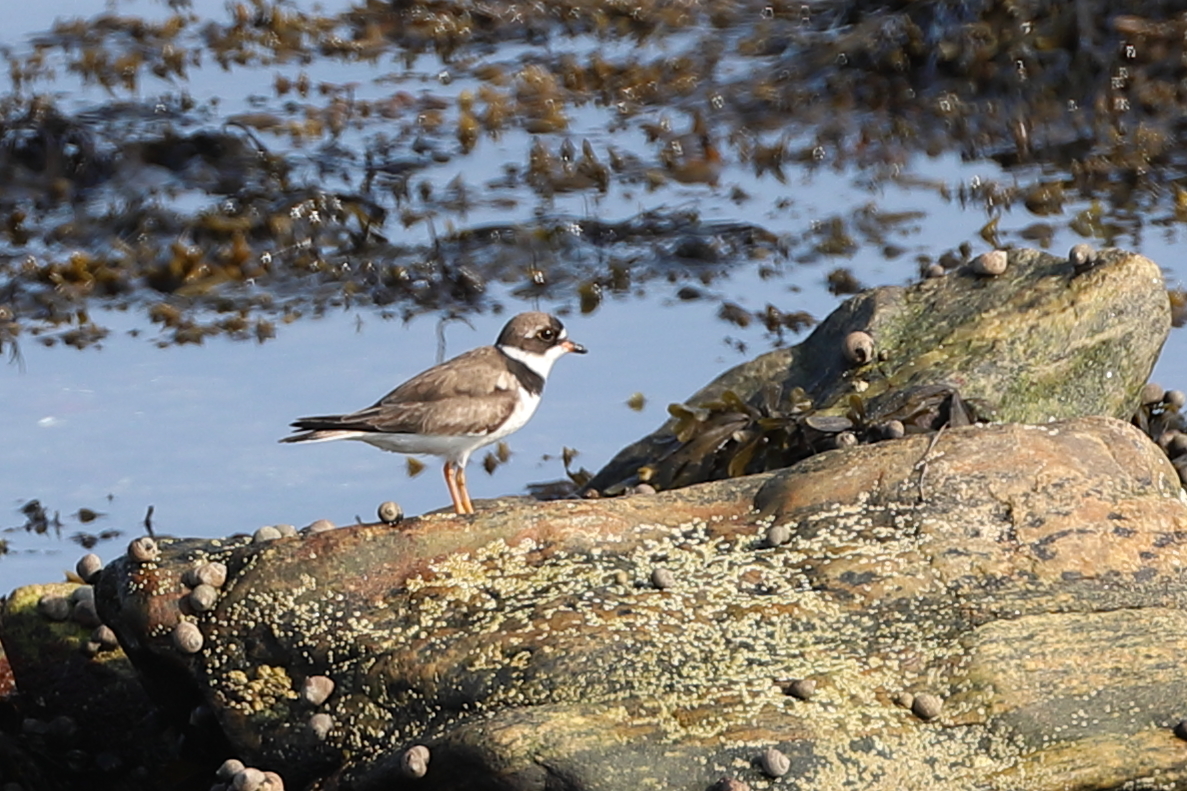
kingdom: Animalia
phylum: Chordata
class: Aves
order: Charadriiformes
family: Charadriidae
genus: Charadrius
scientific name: Charadrius semipalmatus
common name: Semipalmated plover
